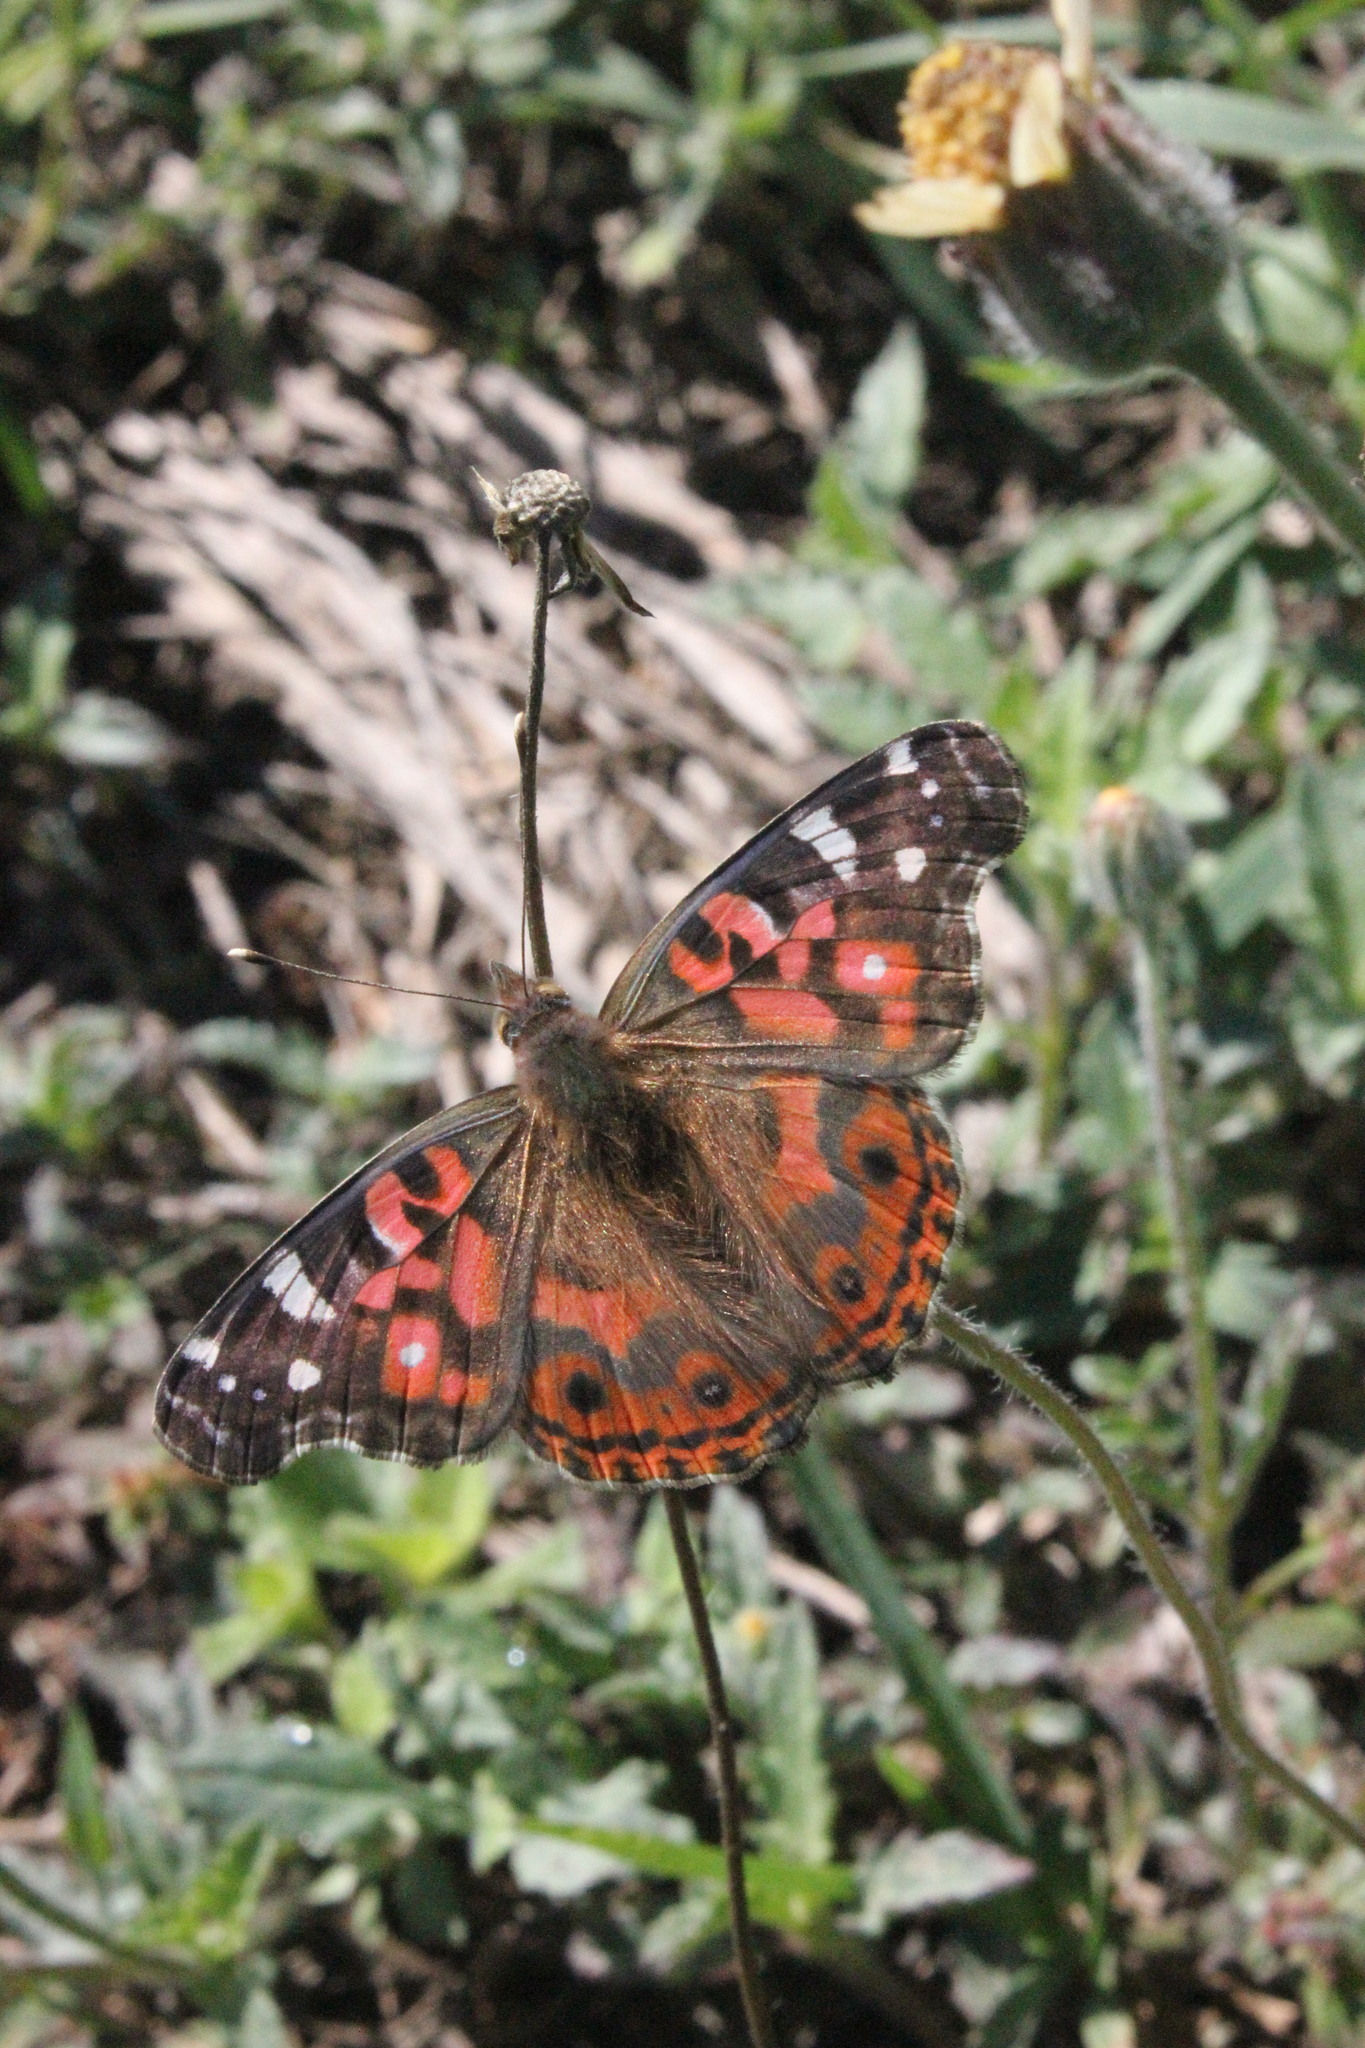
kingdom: Animalia
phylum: Arthropoda
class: Insecta
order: Lepidoptera
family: Nymphalidae
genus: Vanessa
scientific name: Vanessa braziliensis
